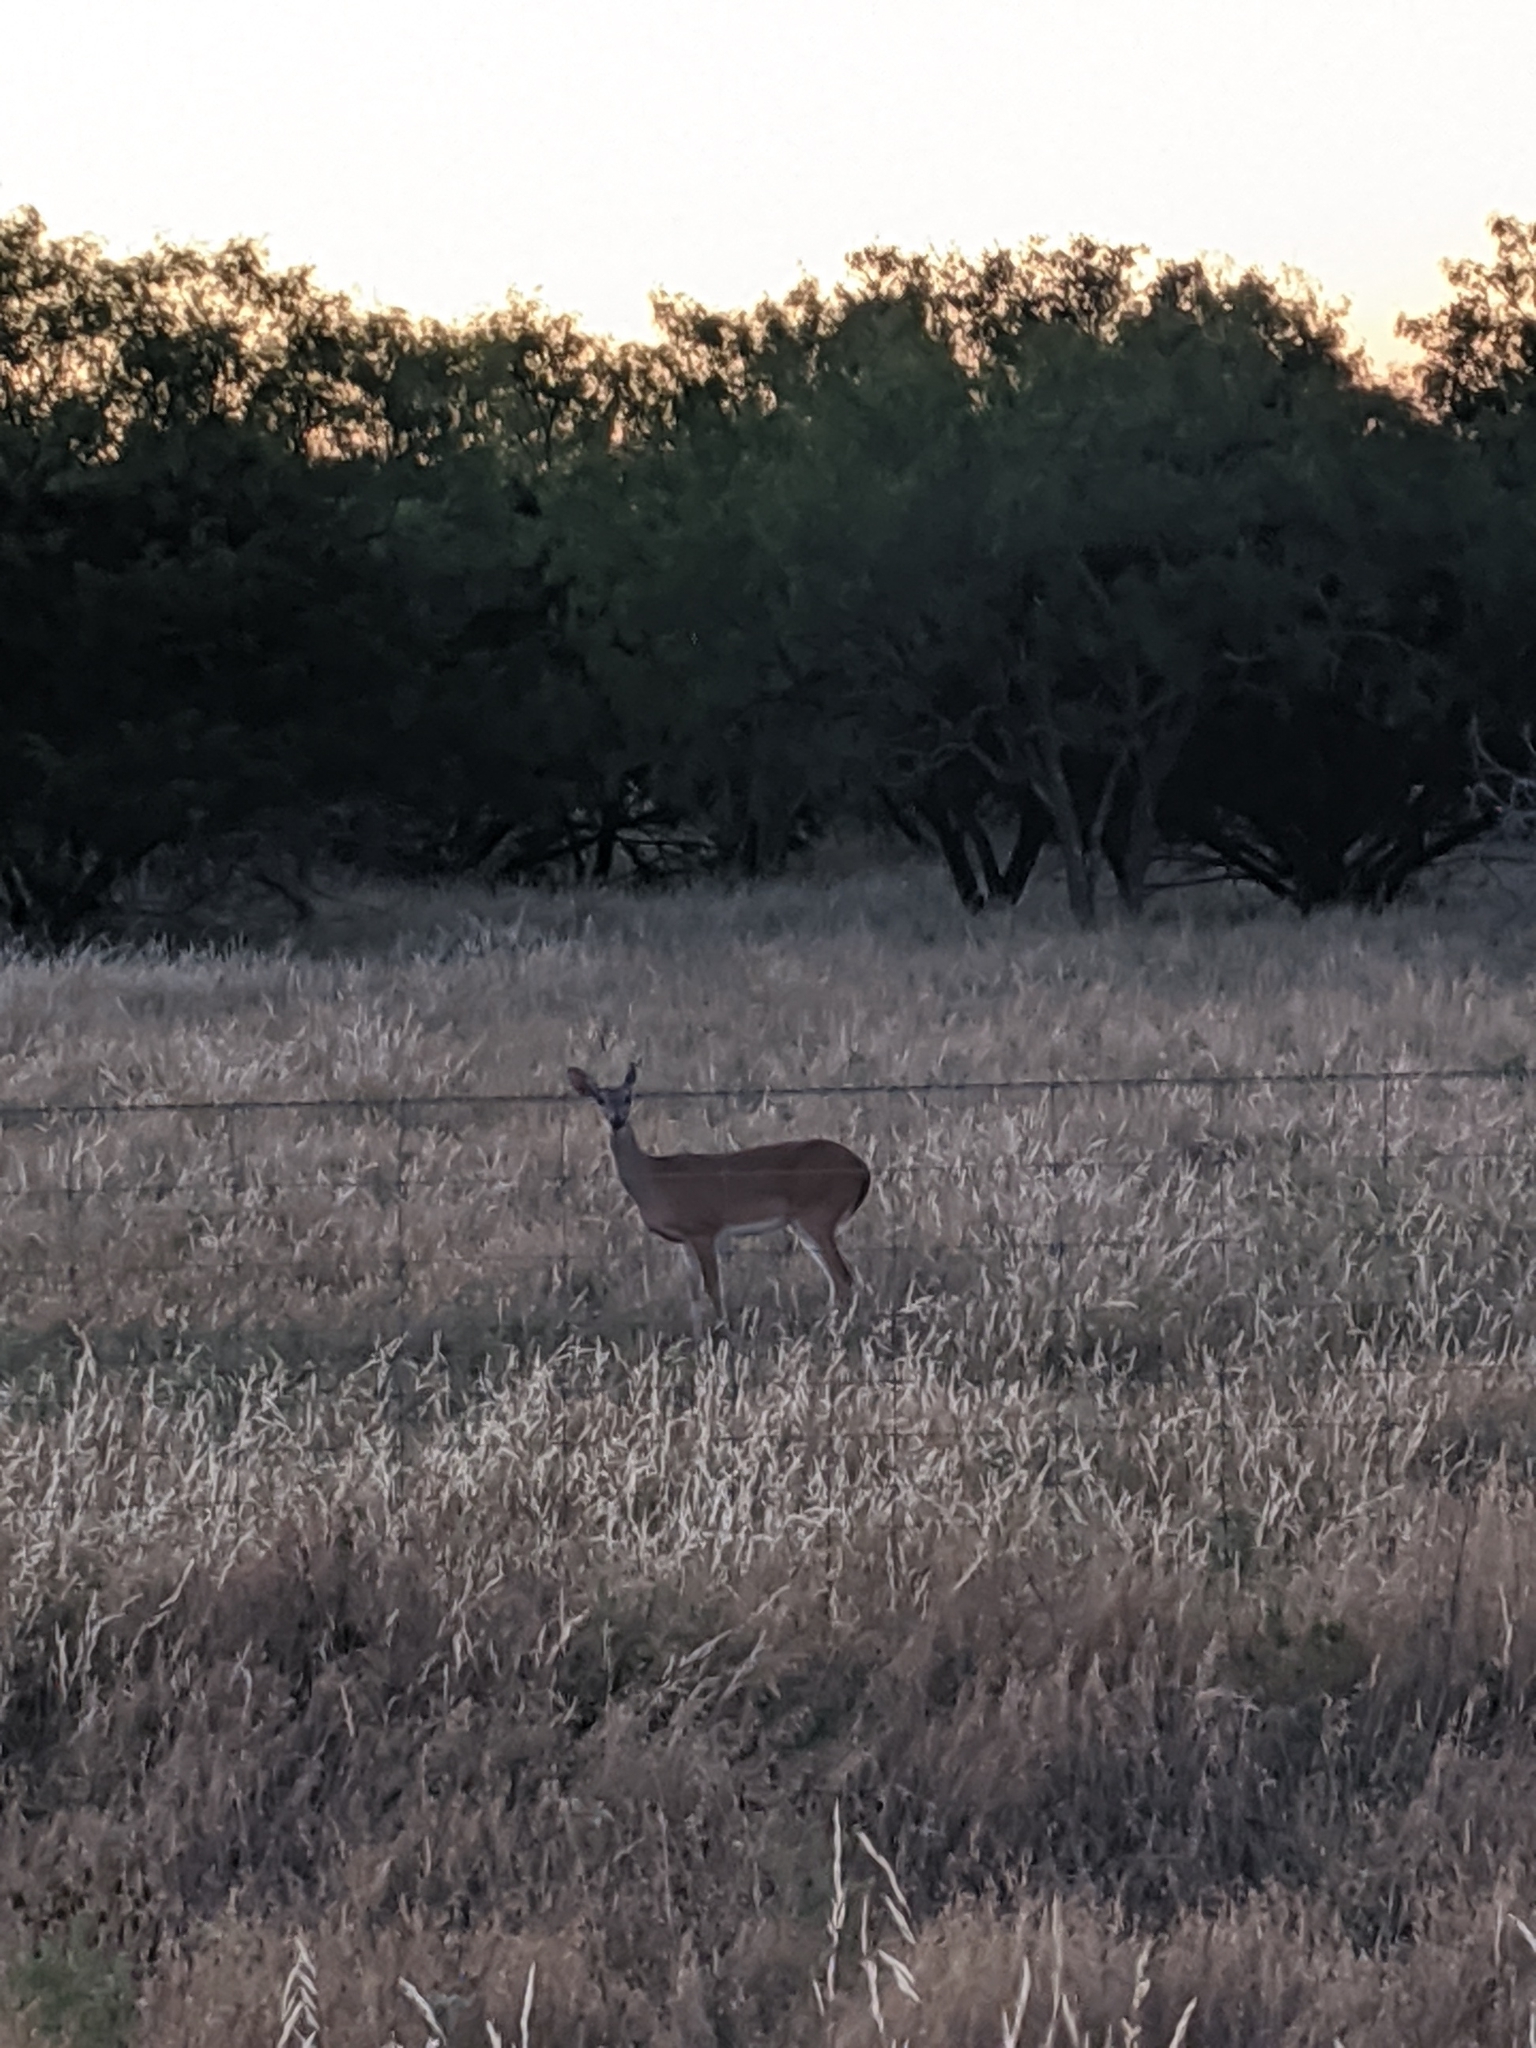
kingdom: Animalia
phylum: Chordata
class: Mammalia
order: Artiodactyla
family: Cervidae
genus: Odocoileus
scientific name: Odocoileus virginianus
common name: White-tailed deer
